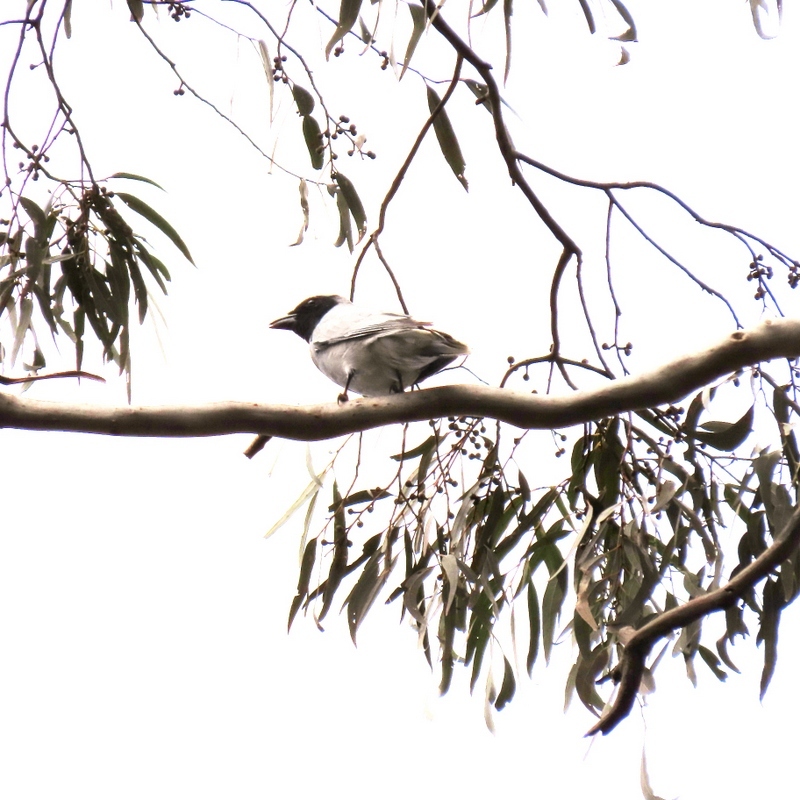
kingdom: Animalia
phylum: Chordata
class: Aves
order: Passeriformes
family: Campephagidae
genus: Coracina
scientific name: Coracina novaehollandiae
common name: Black-faced cuckooshrike
